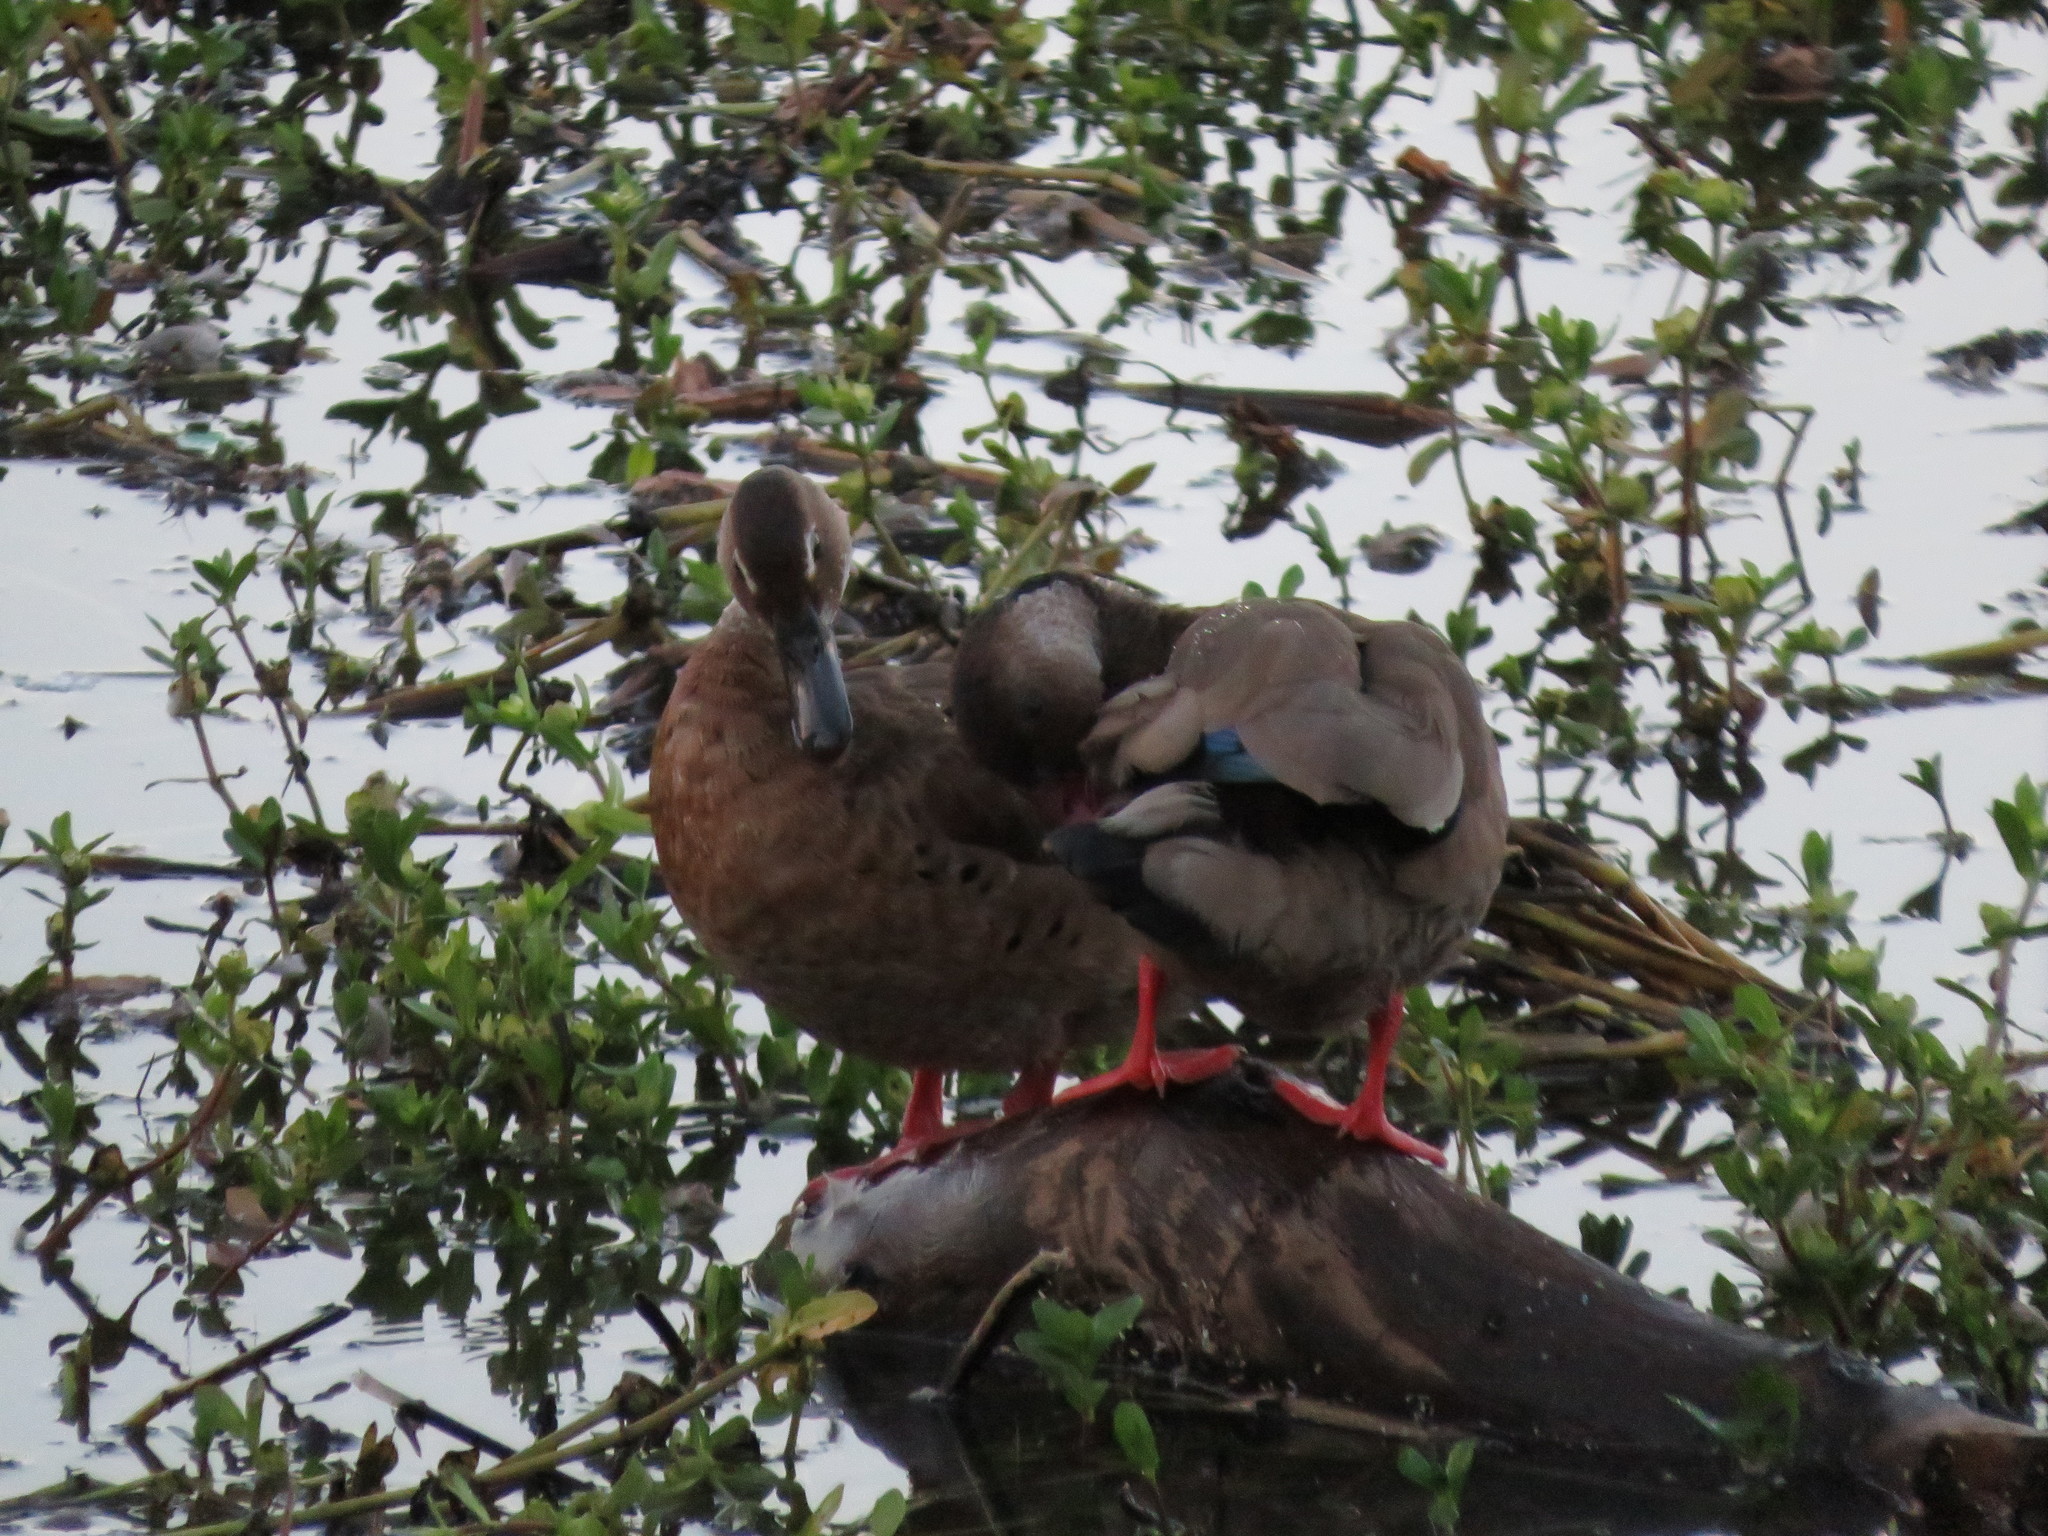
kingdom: Animalia
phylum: Chordata
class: Aves
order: Anseriformes
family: Anatidae
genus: Amazonetta
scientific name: Amazonetta brasiliensis
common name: Brazilian teal
